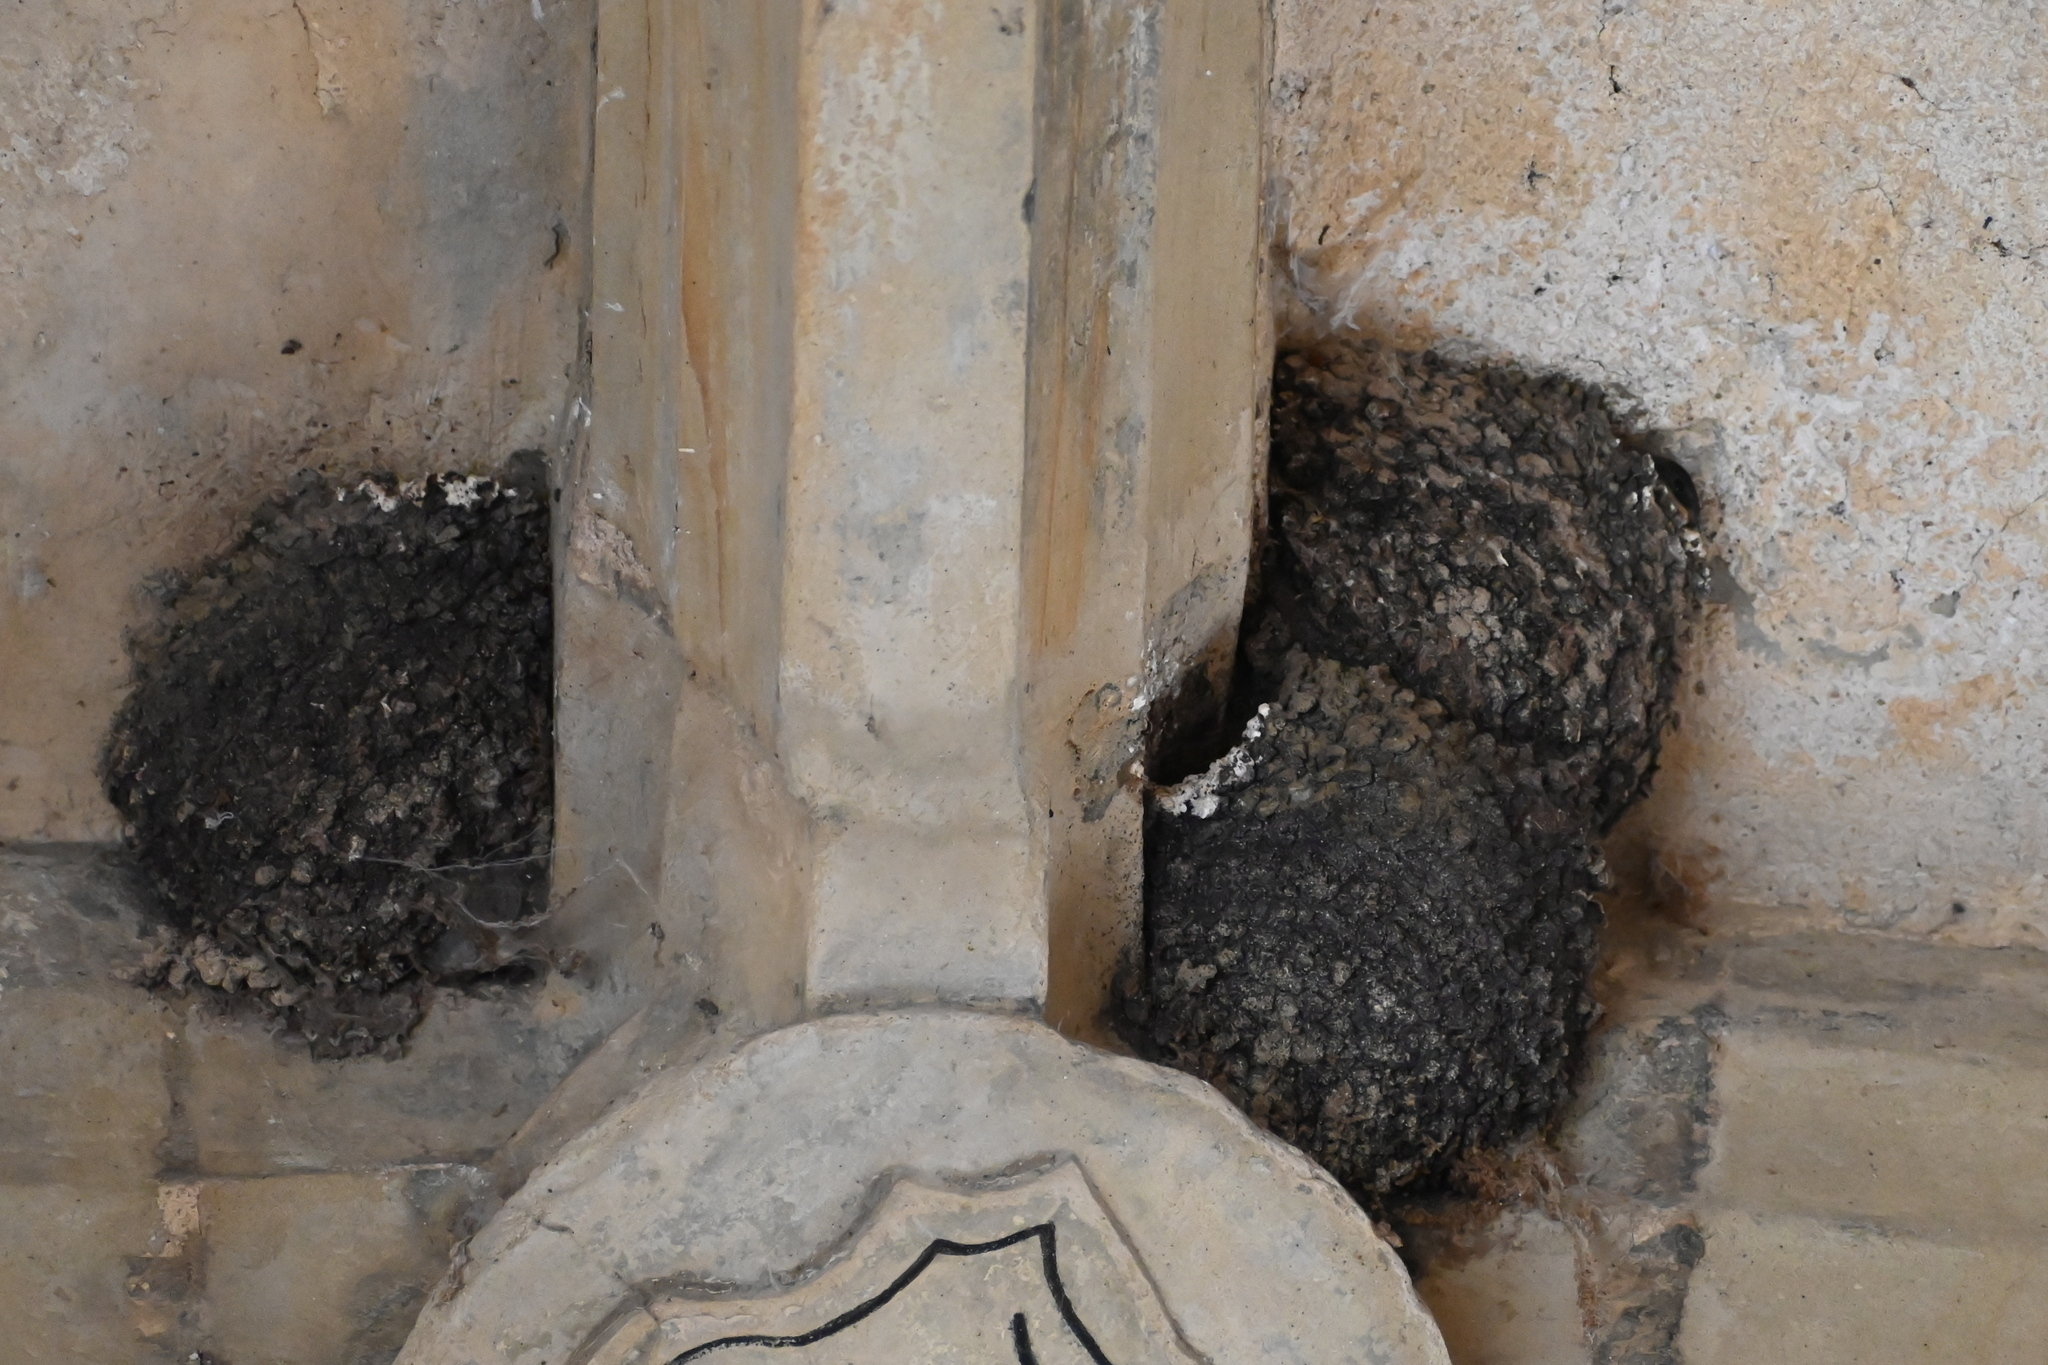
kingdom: Animalia
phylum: Chordata
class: Aves
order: Passeriformes
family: Hirundinidae
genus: Delichon
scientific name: Delichon urbicum
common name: Common house martin
